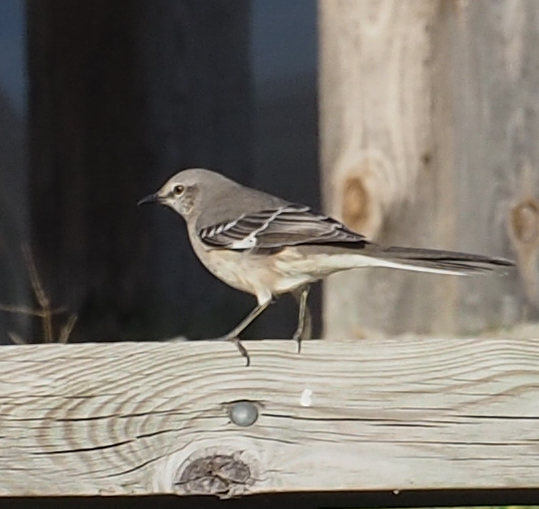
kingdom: Animalia
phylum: Chordata
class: Aves
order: Passeriformes
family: Mimidae
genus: Mimus
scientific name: Mimus polyglottos
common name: Northern mockingbird
